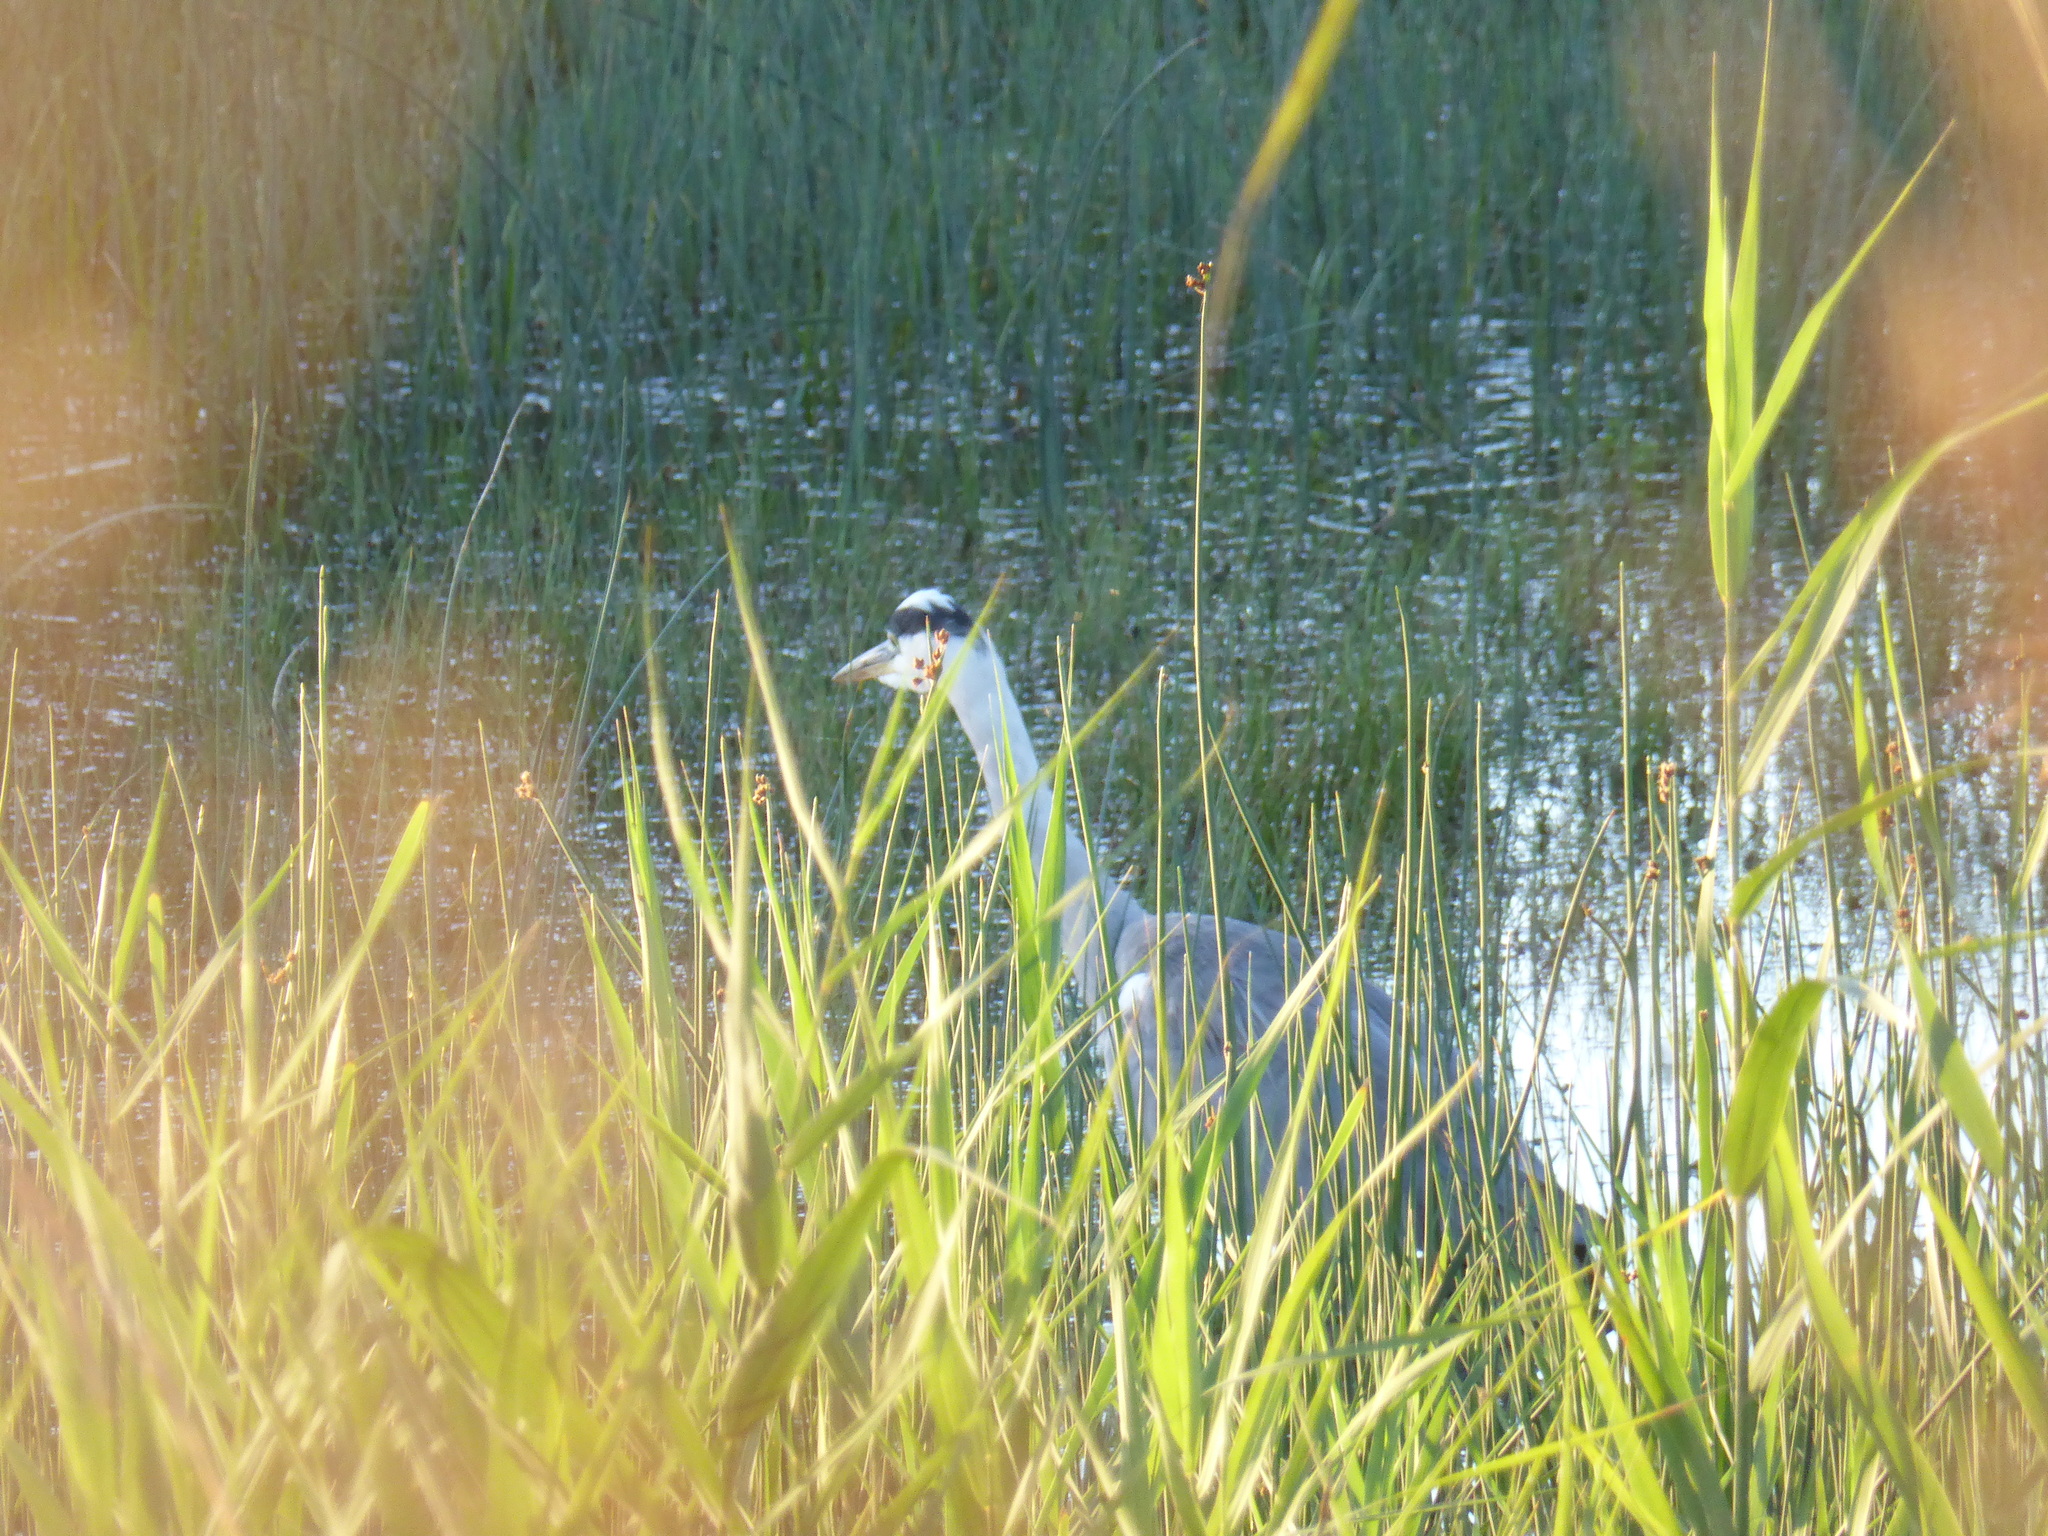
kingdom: Animalia
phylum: Chordata
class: Aves
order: Pelecaniformes
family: Ardeidae
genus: Ardea
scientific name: Ardea cinerea
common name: Grey heron
